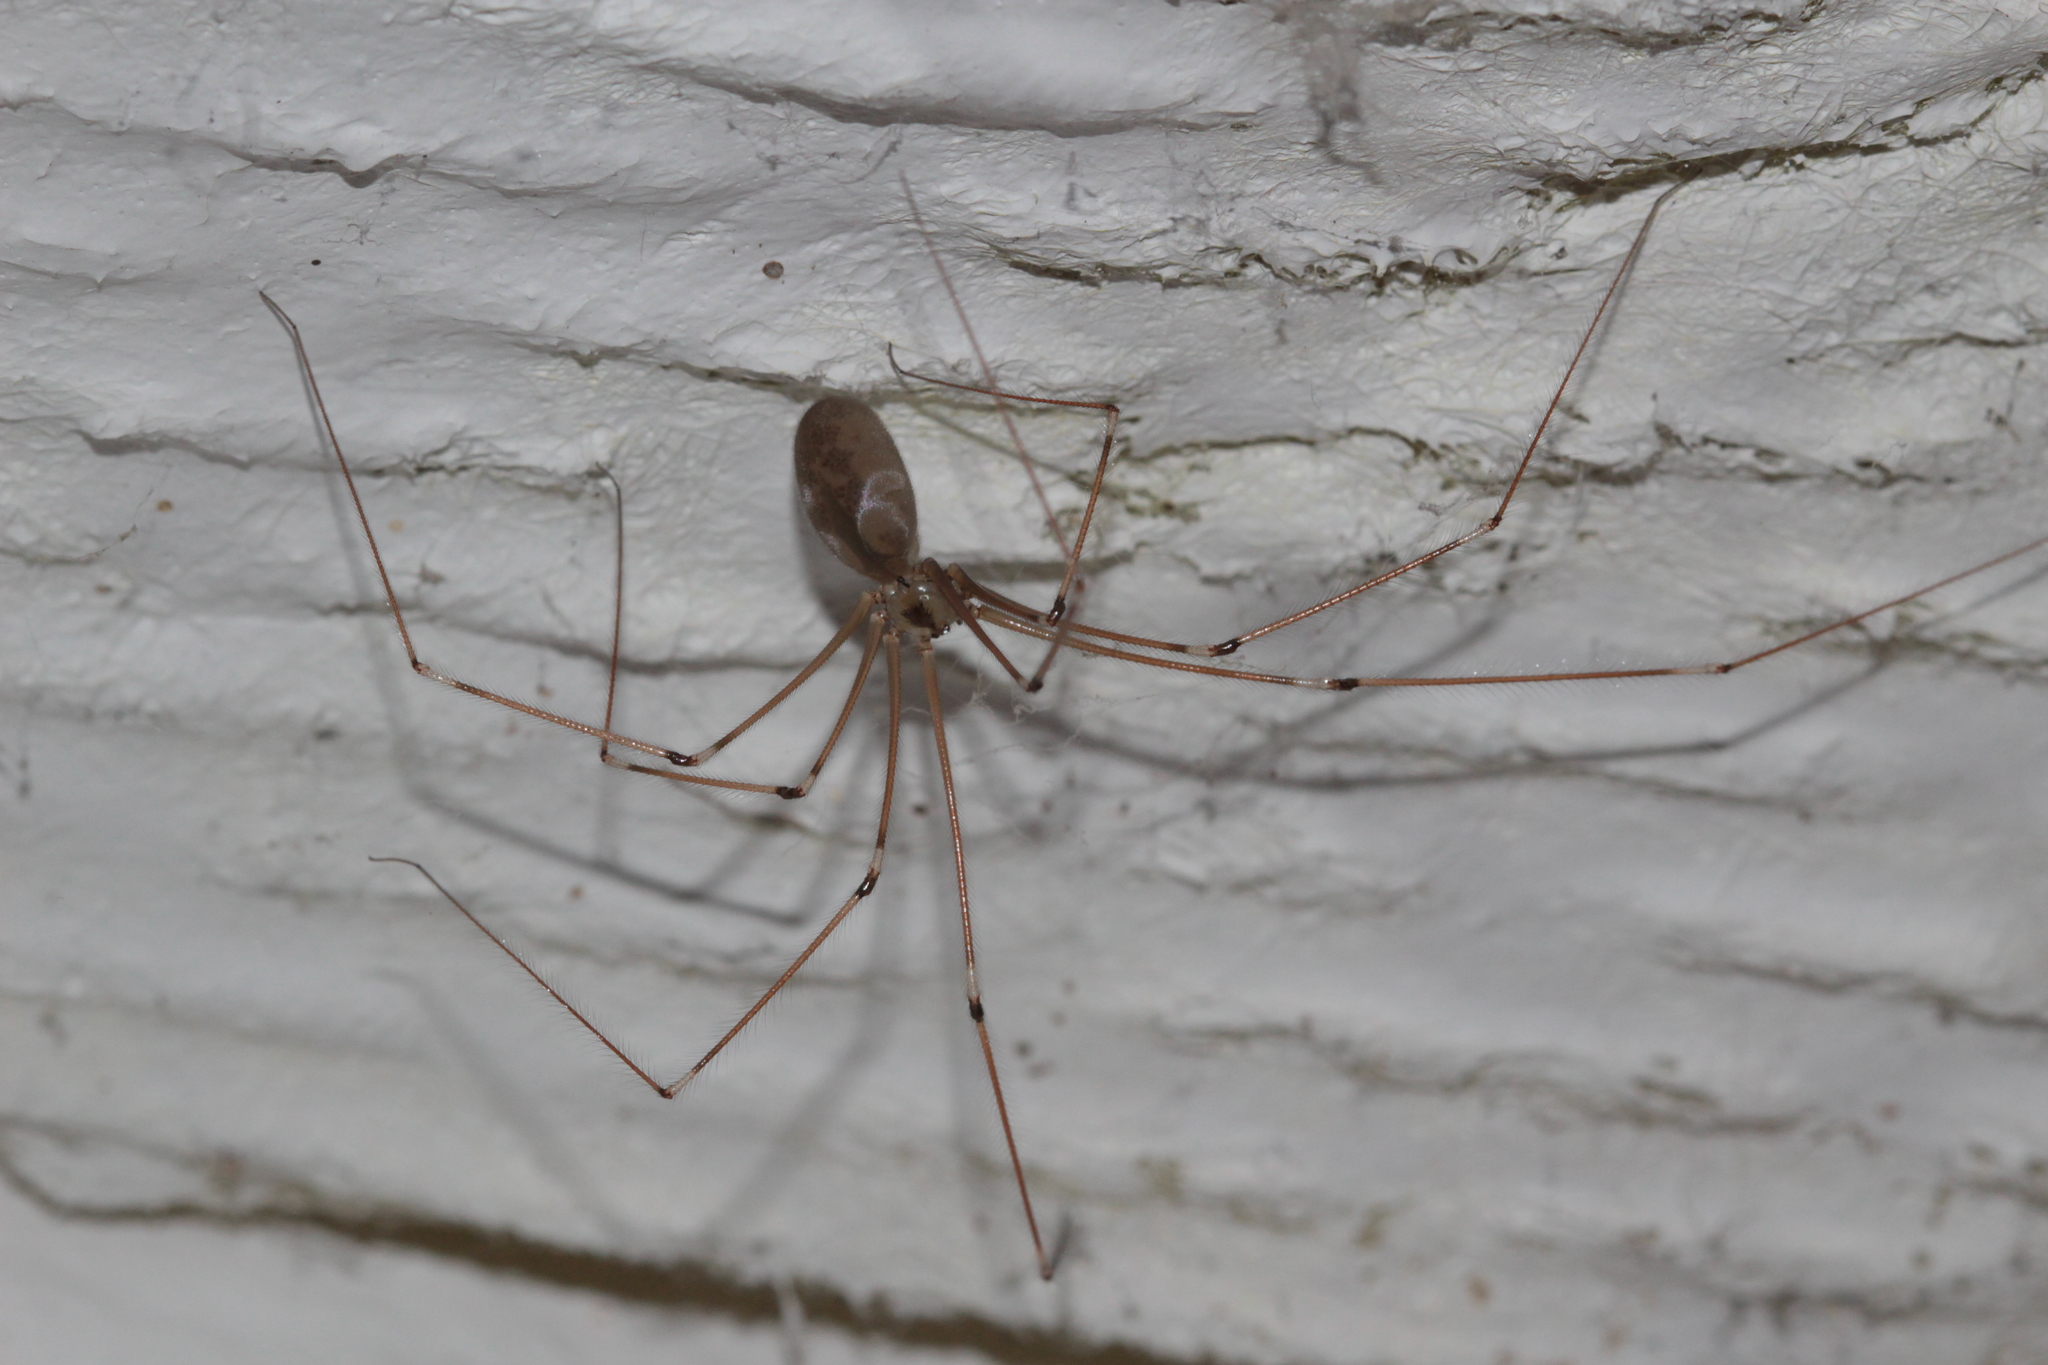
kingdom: Animalia
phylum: Arthropoda
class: Arachnida
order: Araneae
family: Pholcidae
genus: Pholcus
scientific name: Pholcus phalangioides
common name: Longbodied cellar spider
